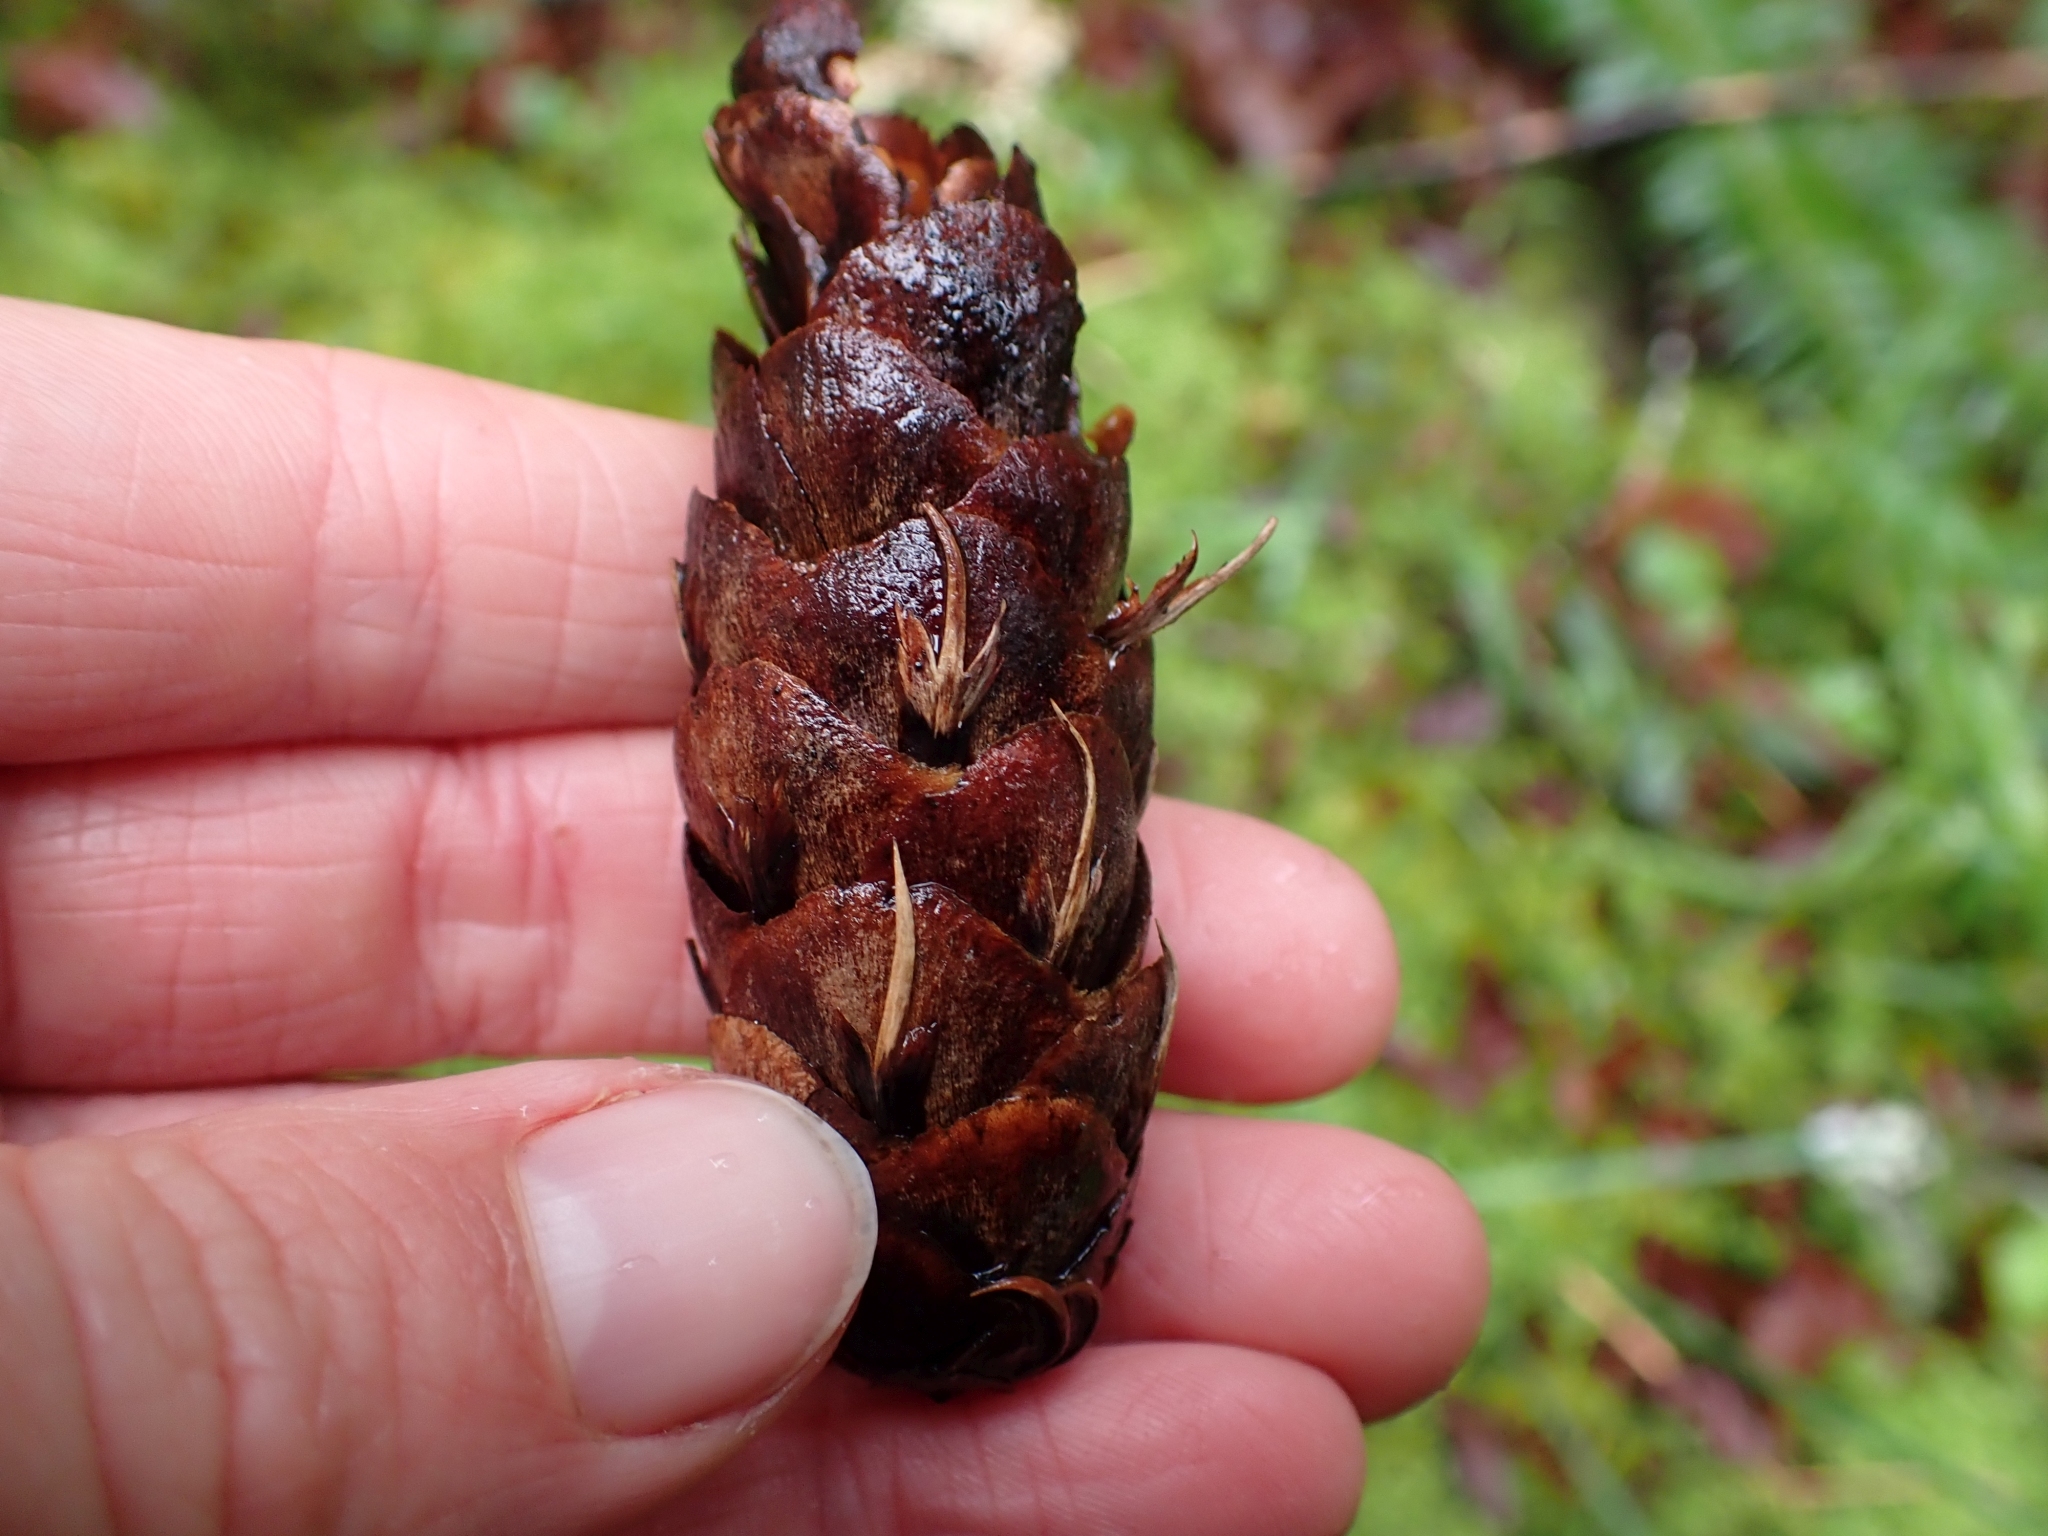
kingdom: Plantae
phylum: Tracheophyta
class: Pinopsida
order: Pinales
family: Pinaceae
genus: Pseudotsuga
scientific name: Pseudotsuga menziesii
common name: Douglas fir
